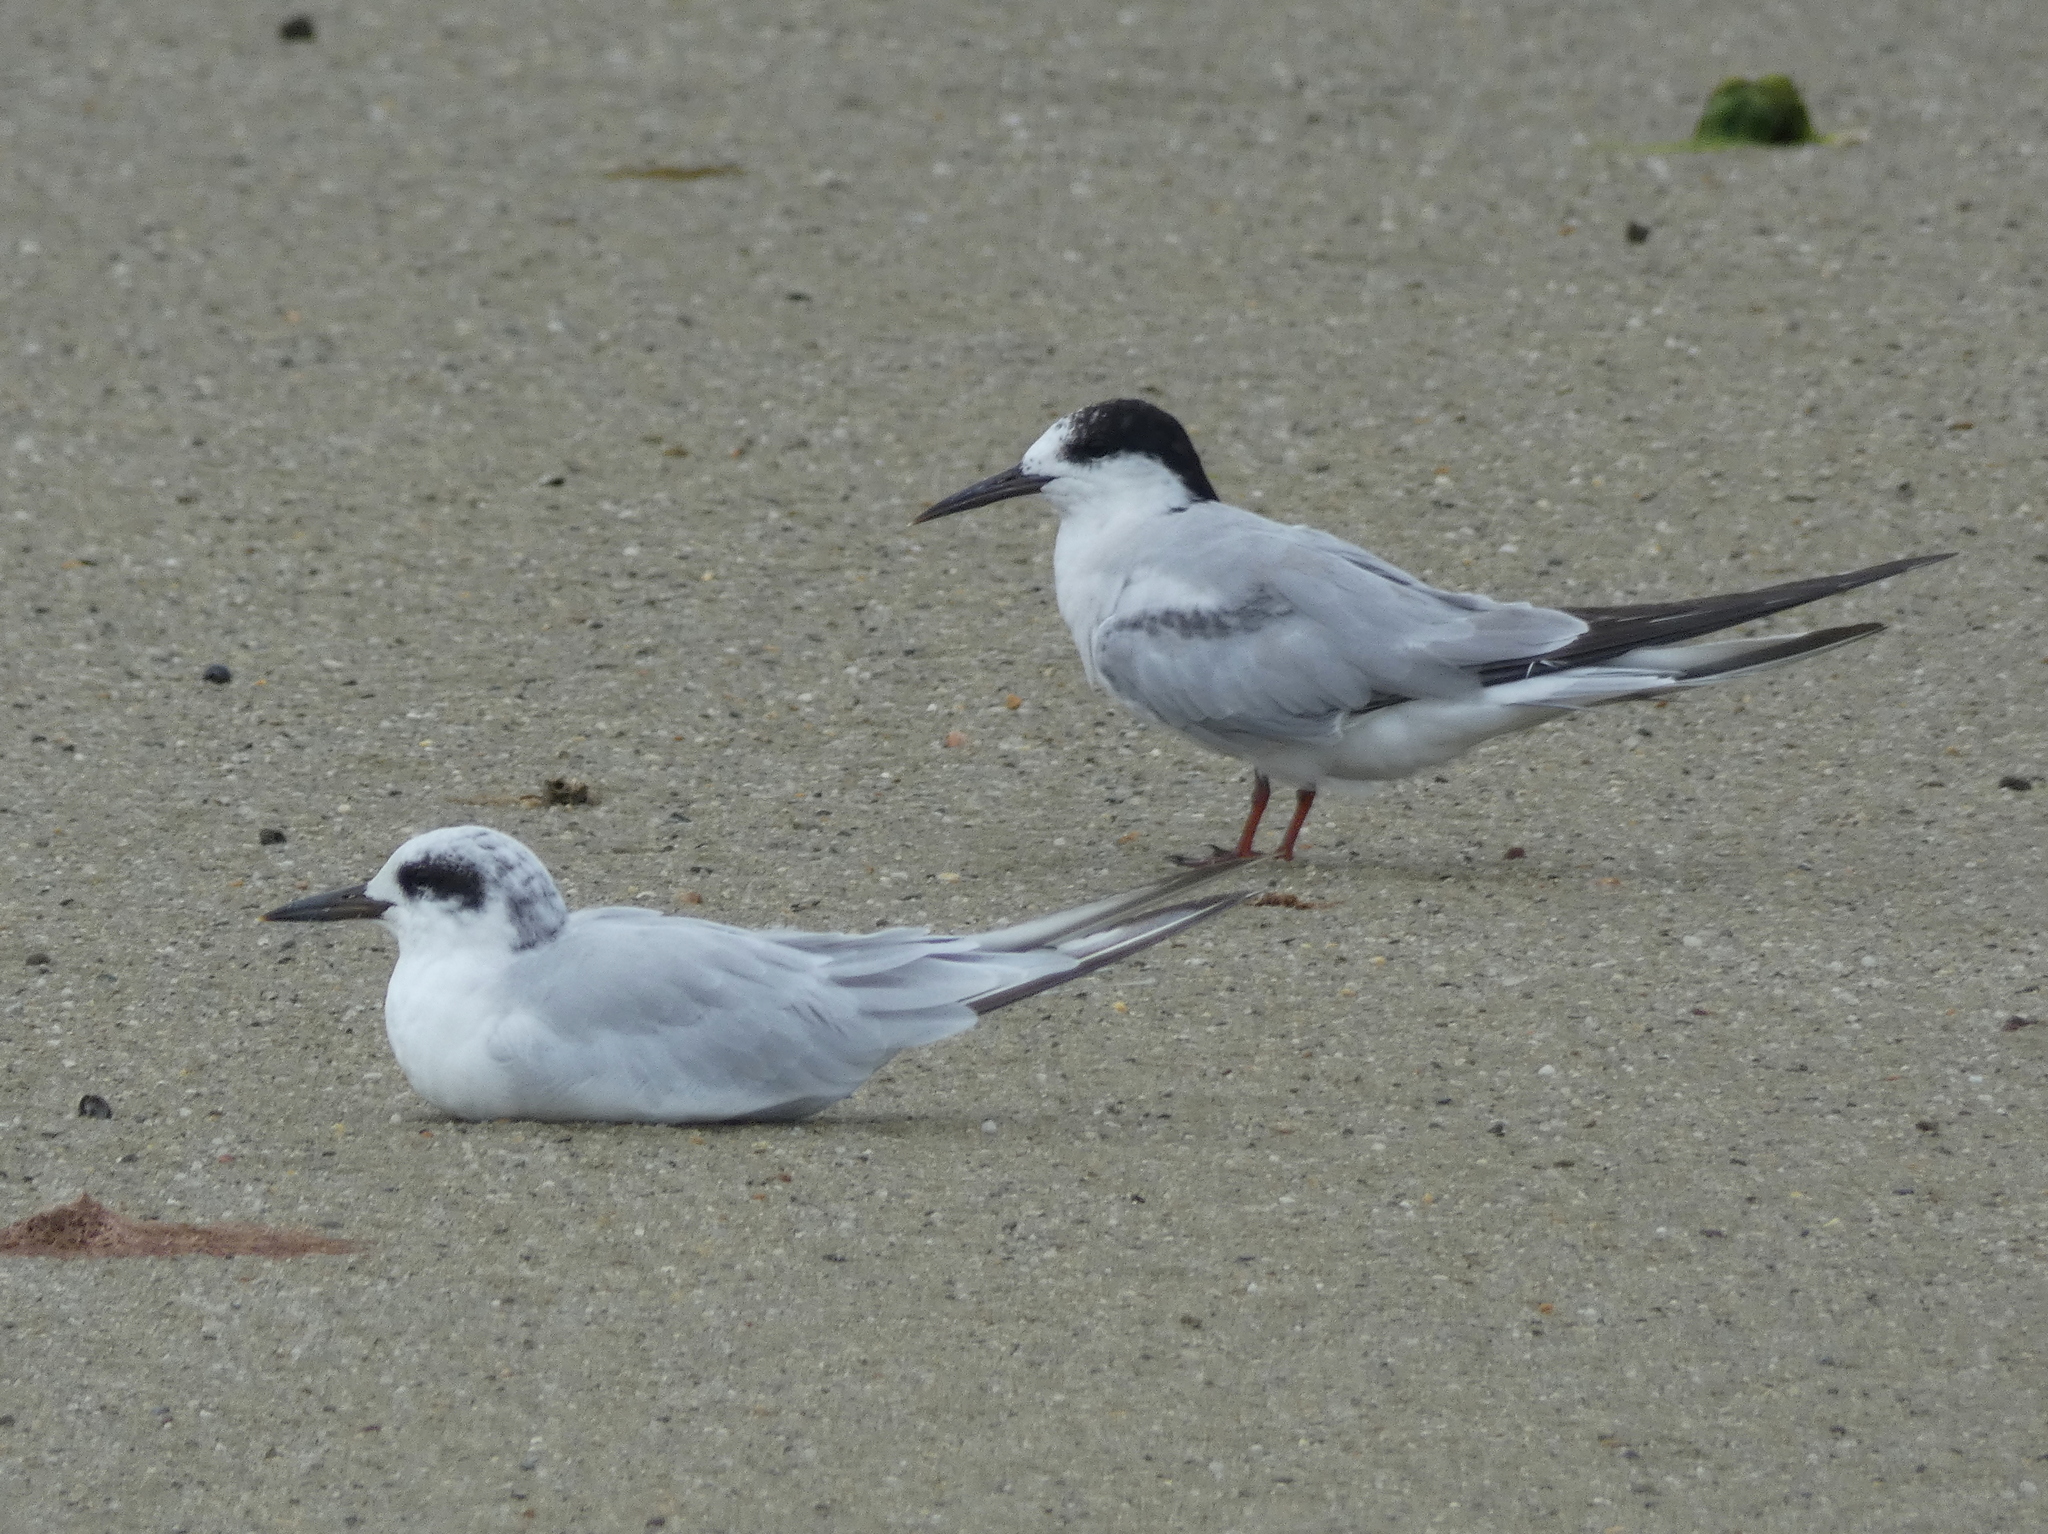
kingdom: Animalia
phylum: Chordata
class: Aves
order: Charadriiformes
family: Laridae
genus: Sterna
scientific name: Sterna forsteri
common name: Forster's tern
